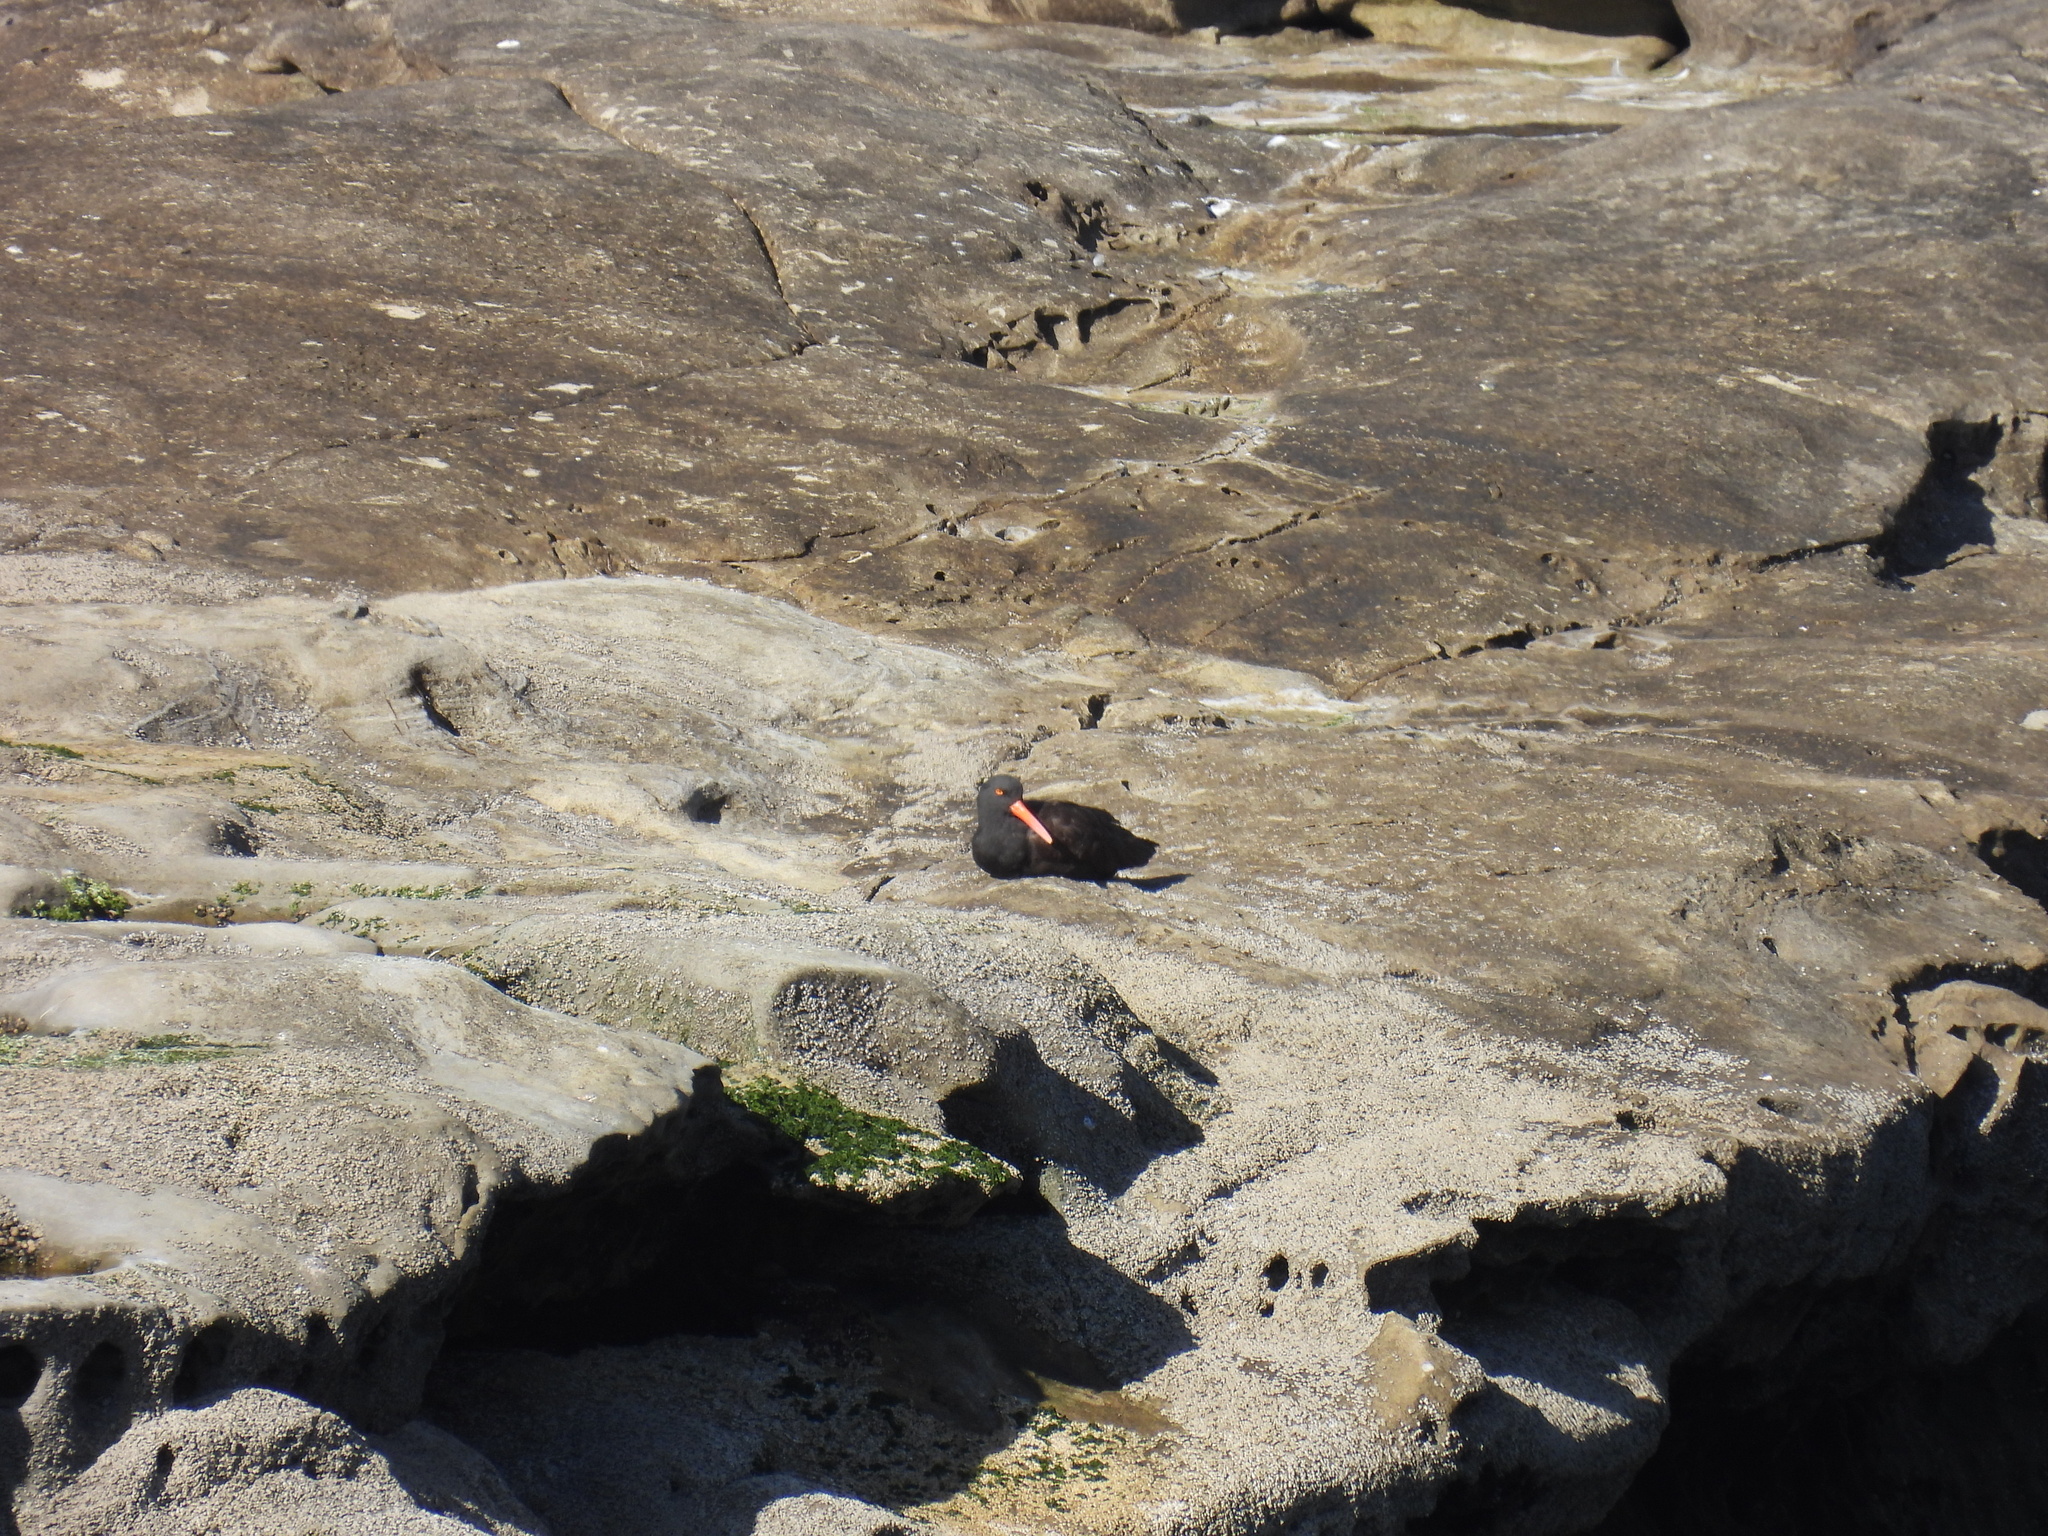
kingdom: Animalia
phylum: Chordata
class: Aves
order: Charadriiformes
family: Haematopodidae
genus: Haematopus
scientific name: Haematopus bachmani
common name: Black oystercatcher
